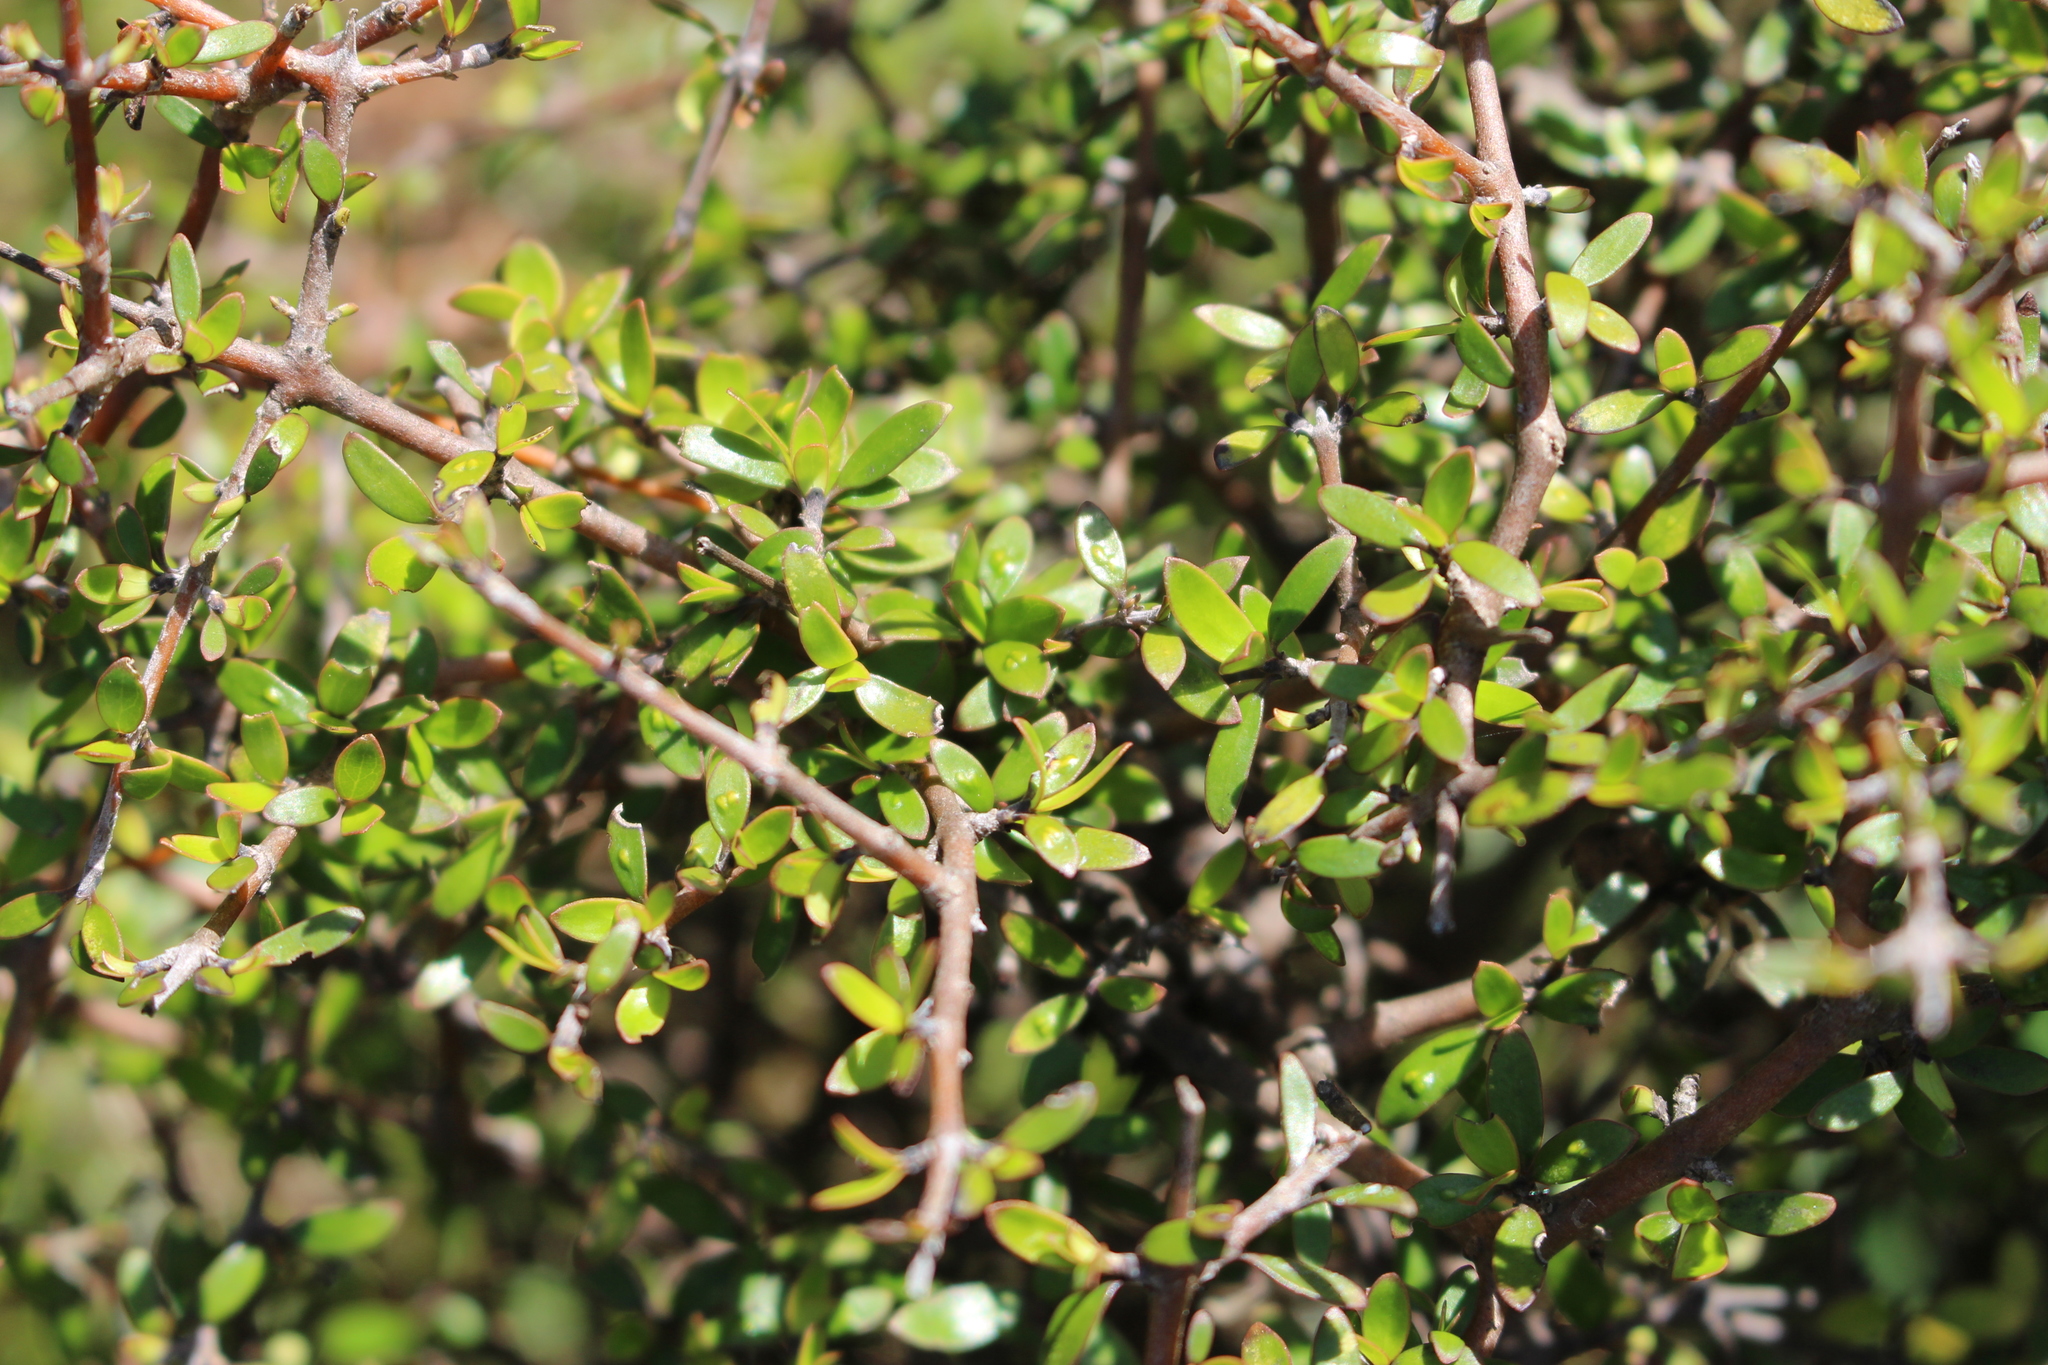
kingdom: Plantae
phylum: Tracheophyta
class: Magnoliopsida
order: Gentianales
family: Rubiaceae
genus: Coprosma
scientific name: Coprosma propinqua
